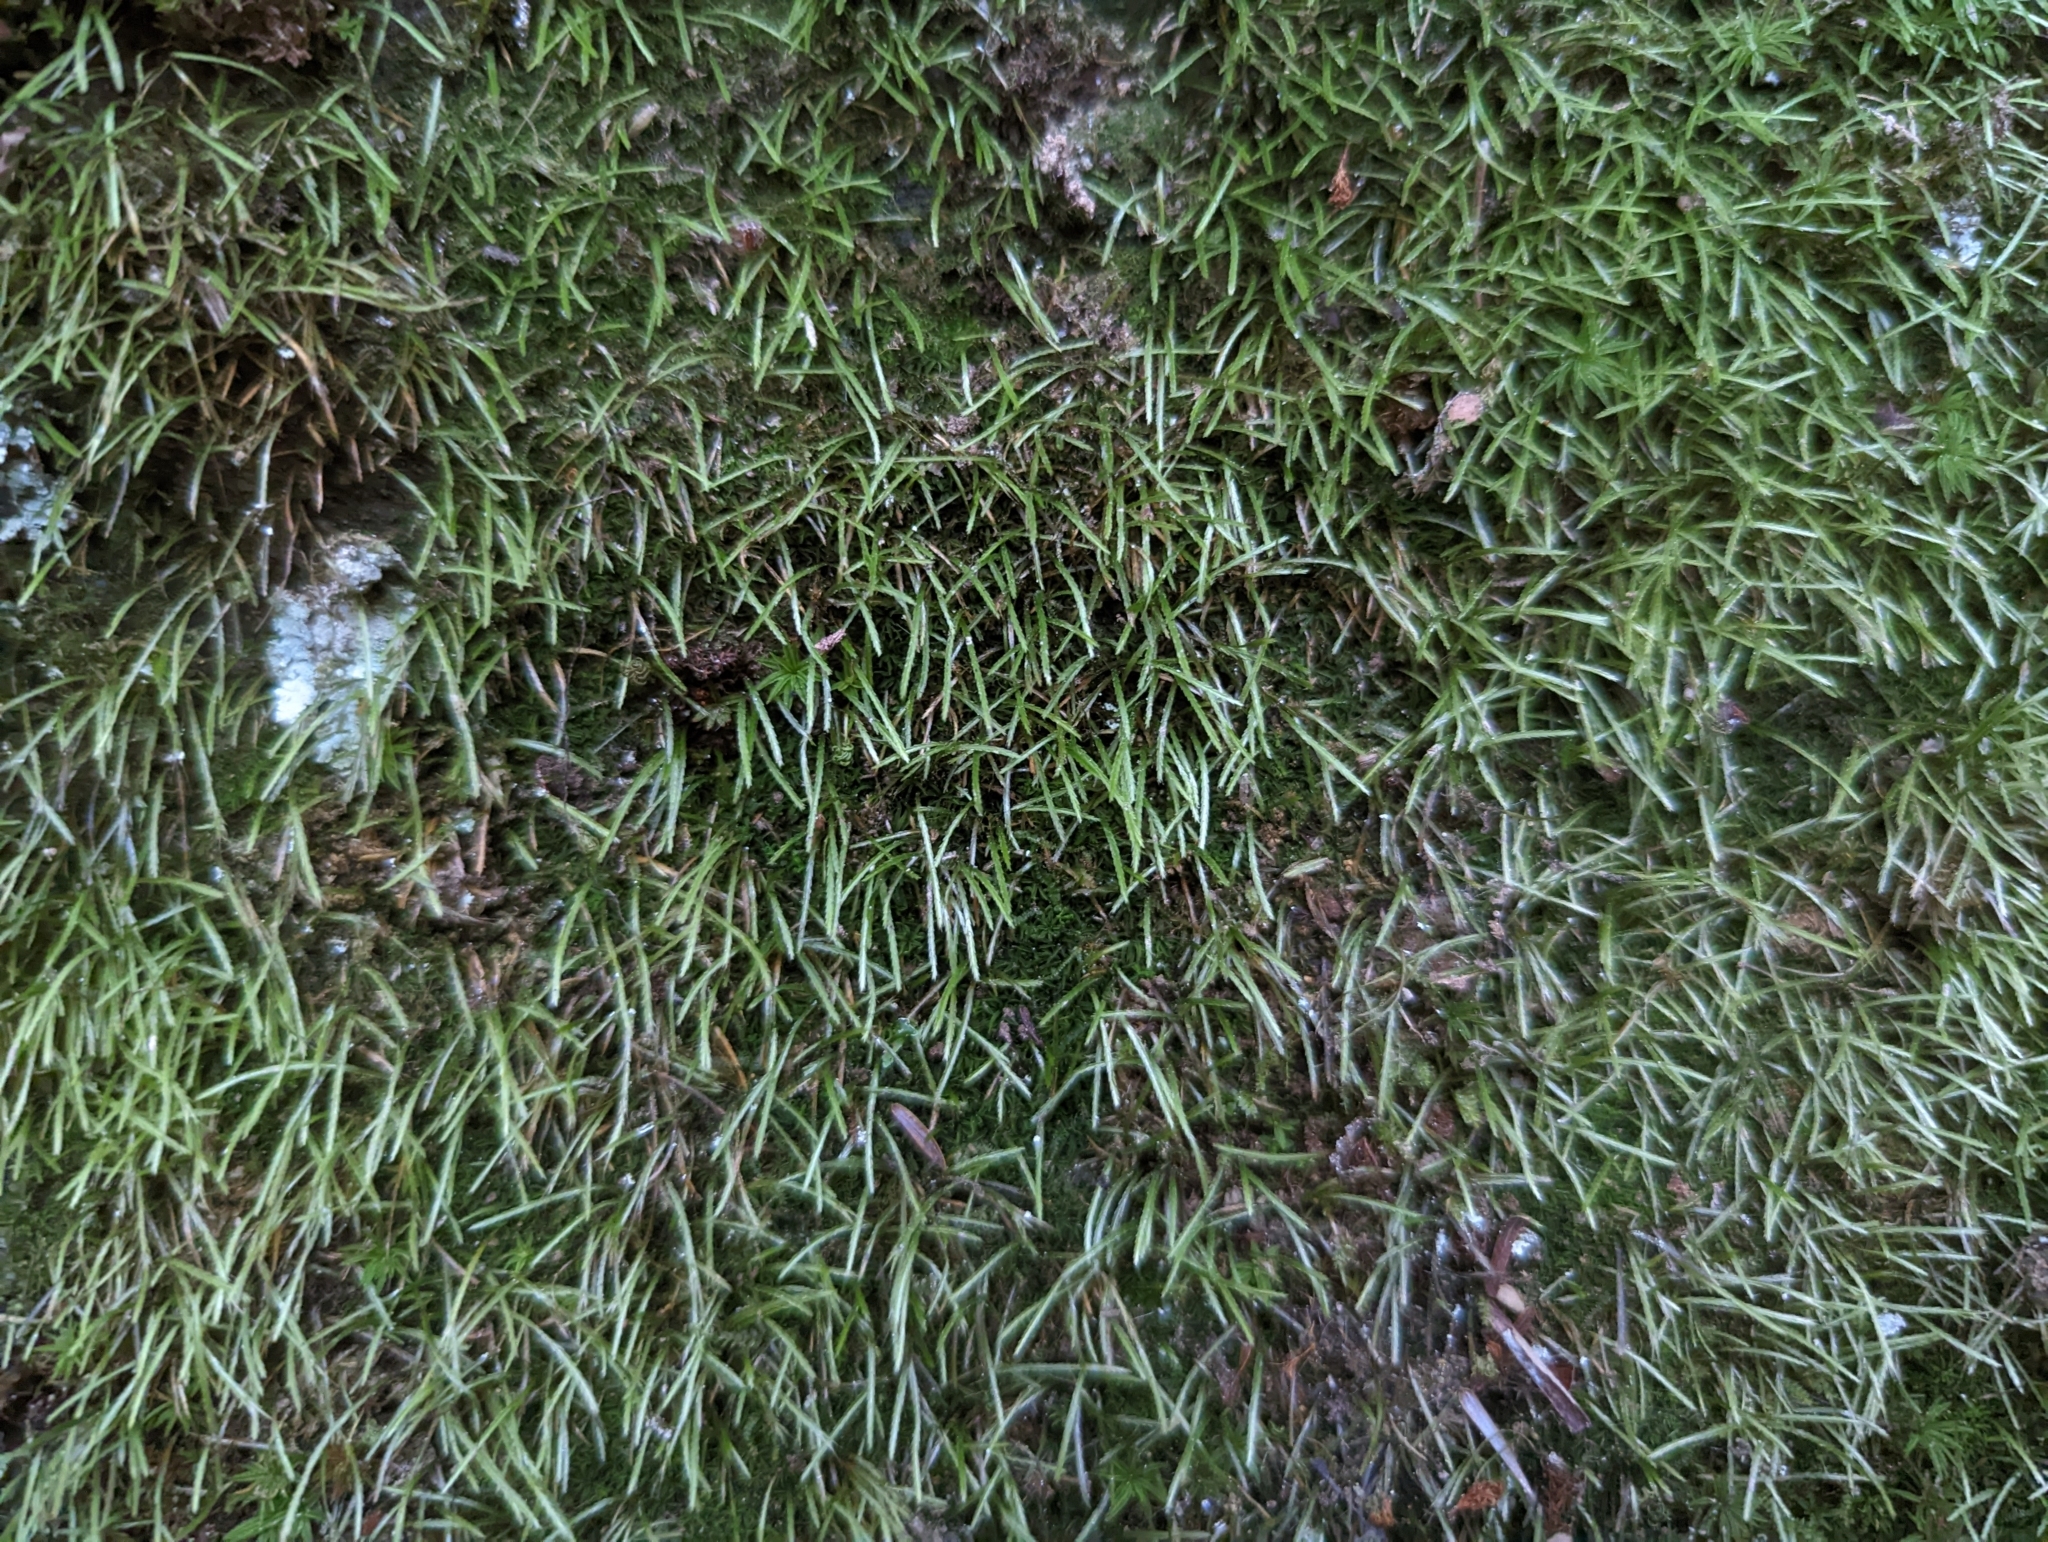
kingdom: Plantae
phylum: Bryophyta
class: Bryopsida
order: Bryoxiphiales
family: Bryoxiphiaceae
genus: Bryoxiphium
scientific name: Bryoxiphium norvegicum
